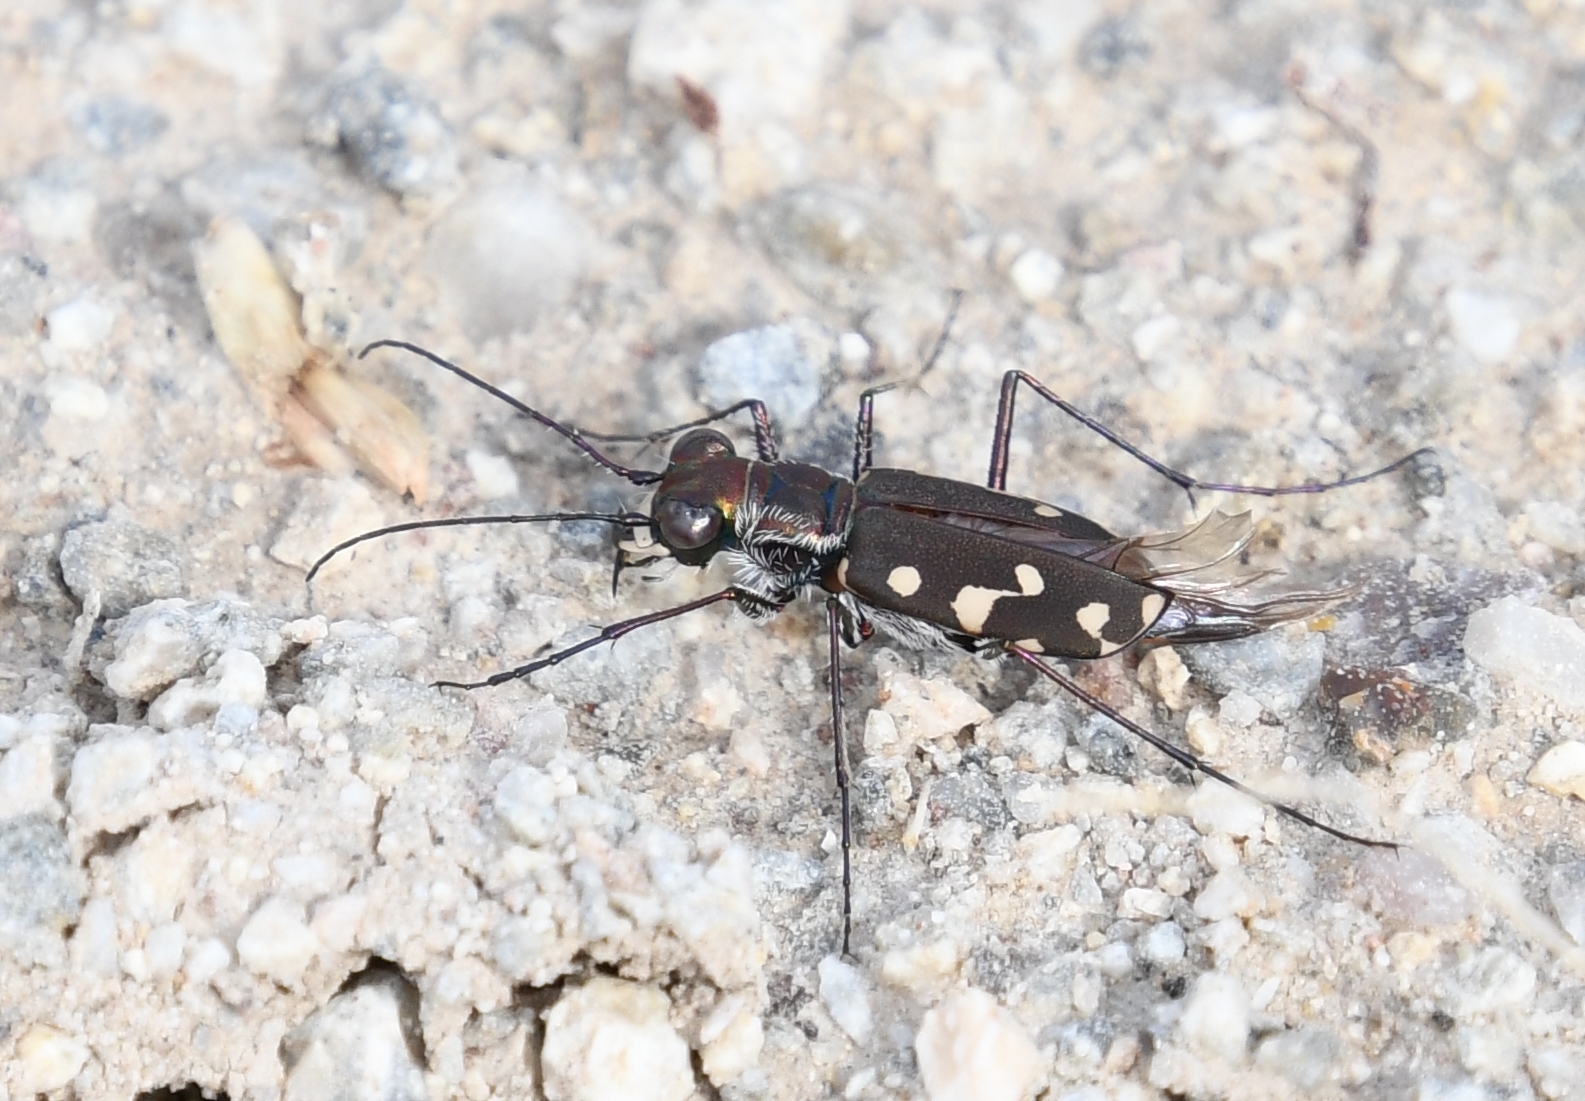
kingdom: Animalia
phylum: Arthropoda
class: Insecta
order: Coleoptera
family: Carabidae
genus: Cicindela
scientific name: Cicindela sedecimpunctata
